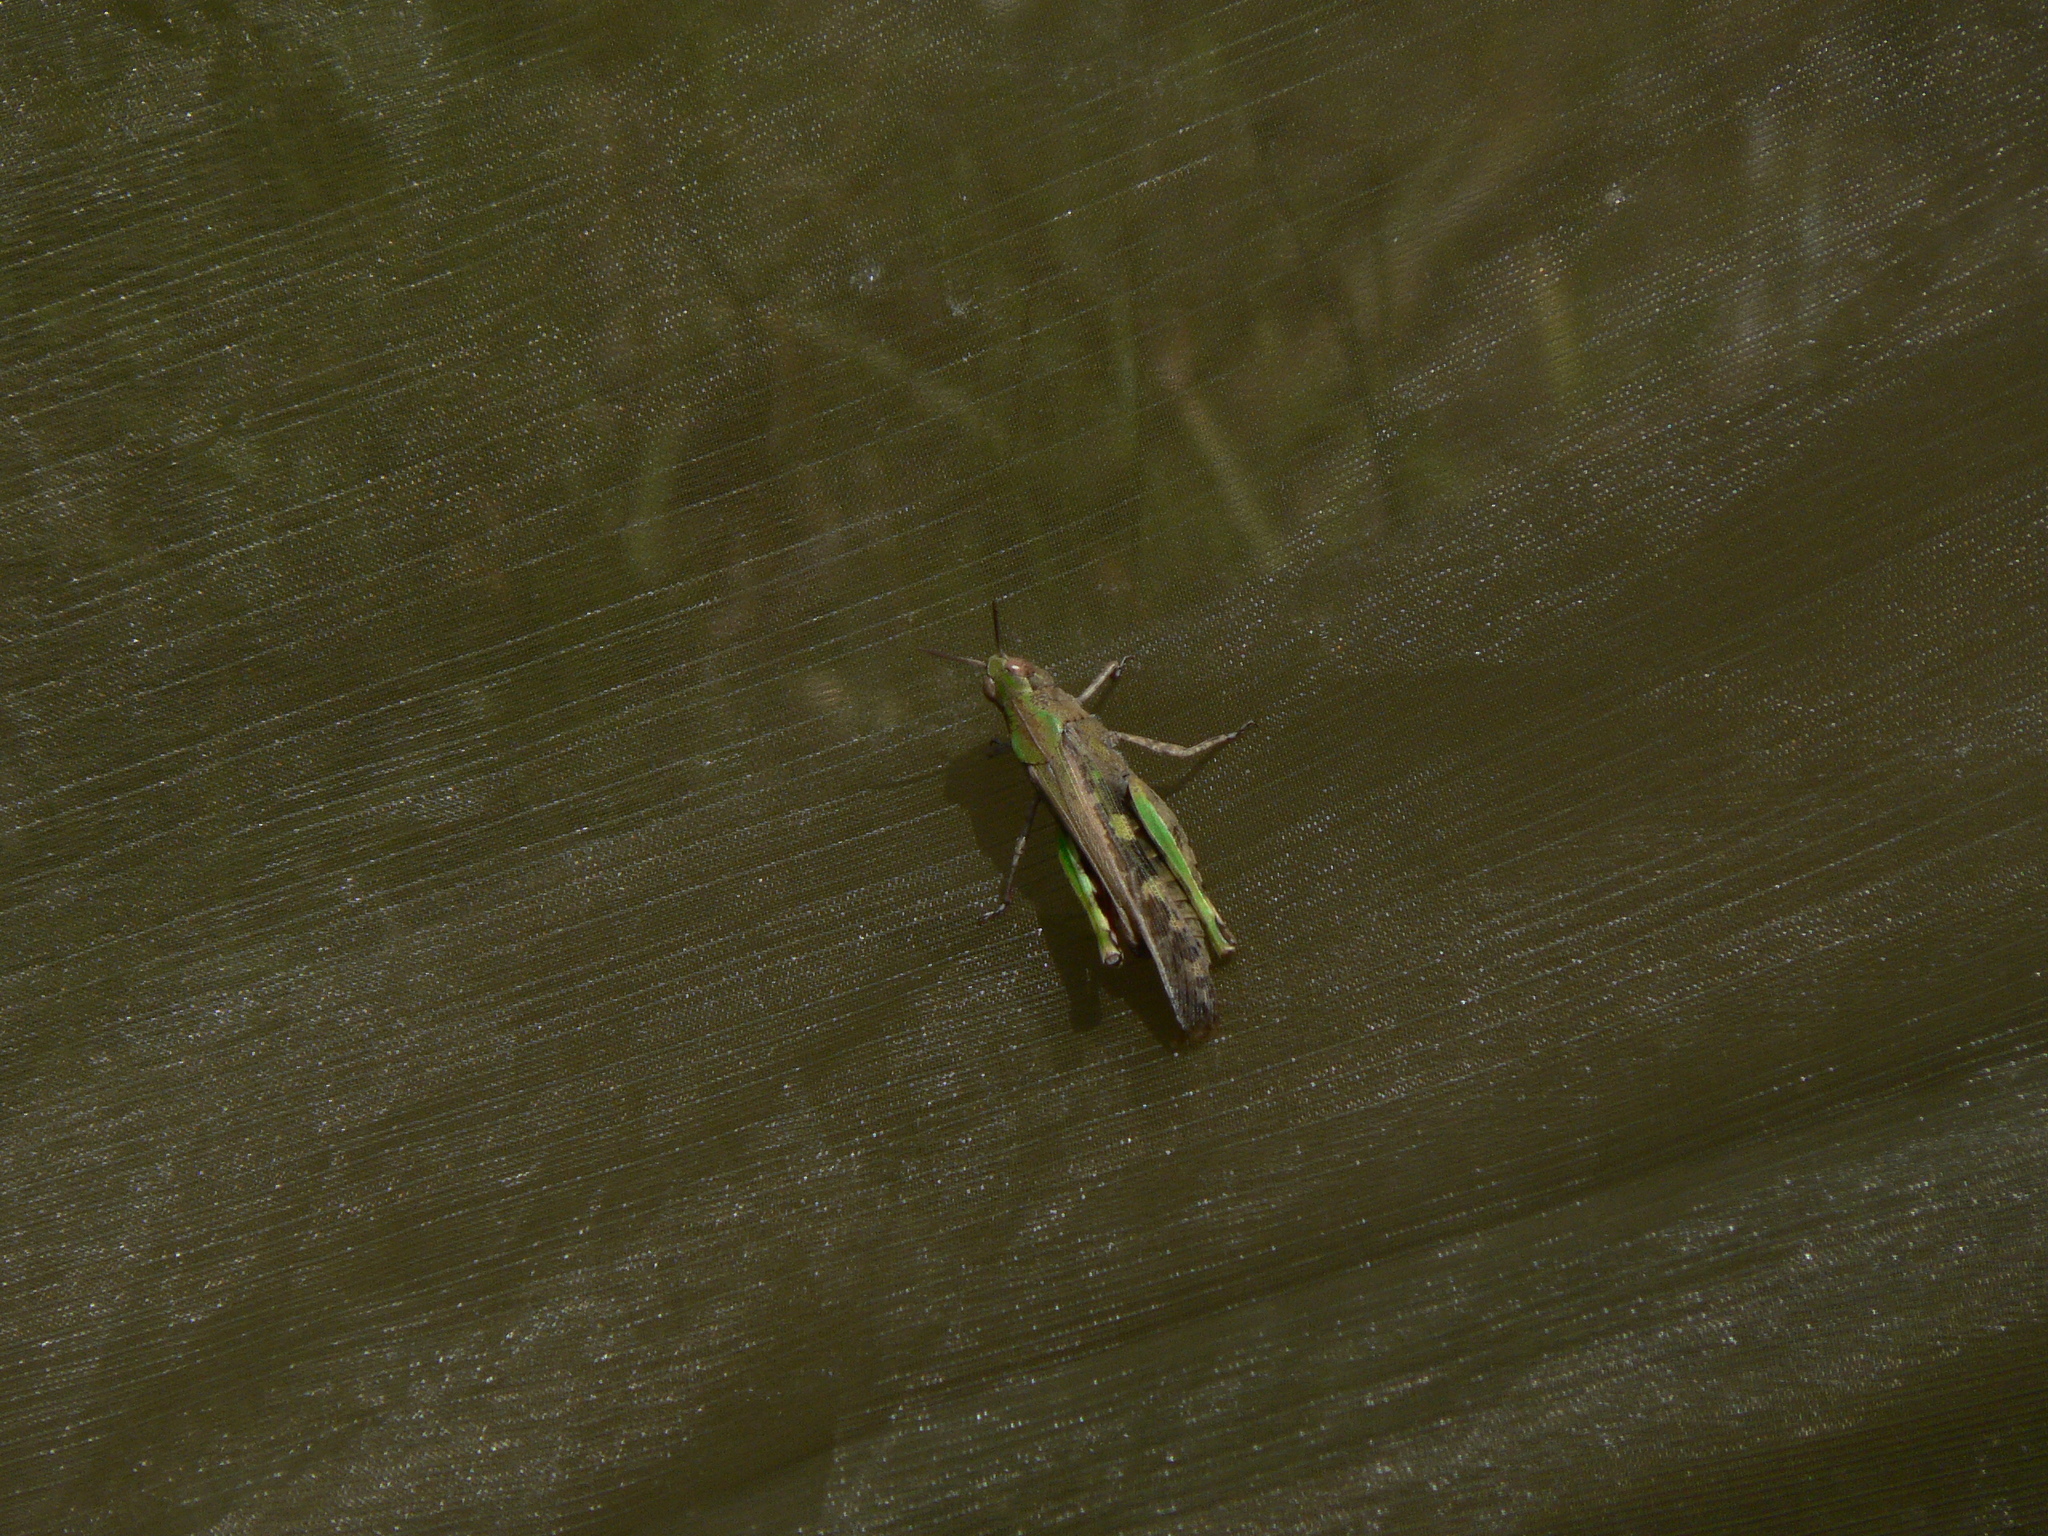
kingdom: Animalia
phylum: Arthropoda
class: Insecta
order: Orthoptera
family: Acrididae
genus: Aiolopus
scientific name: Aiolopus strepens
